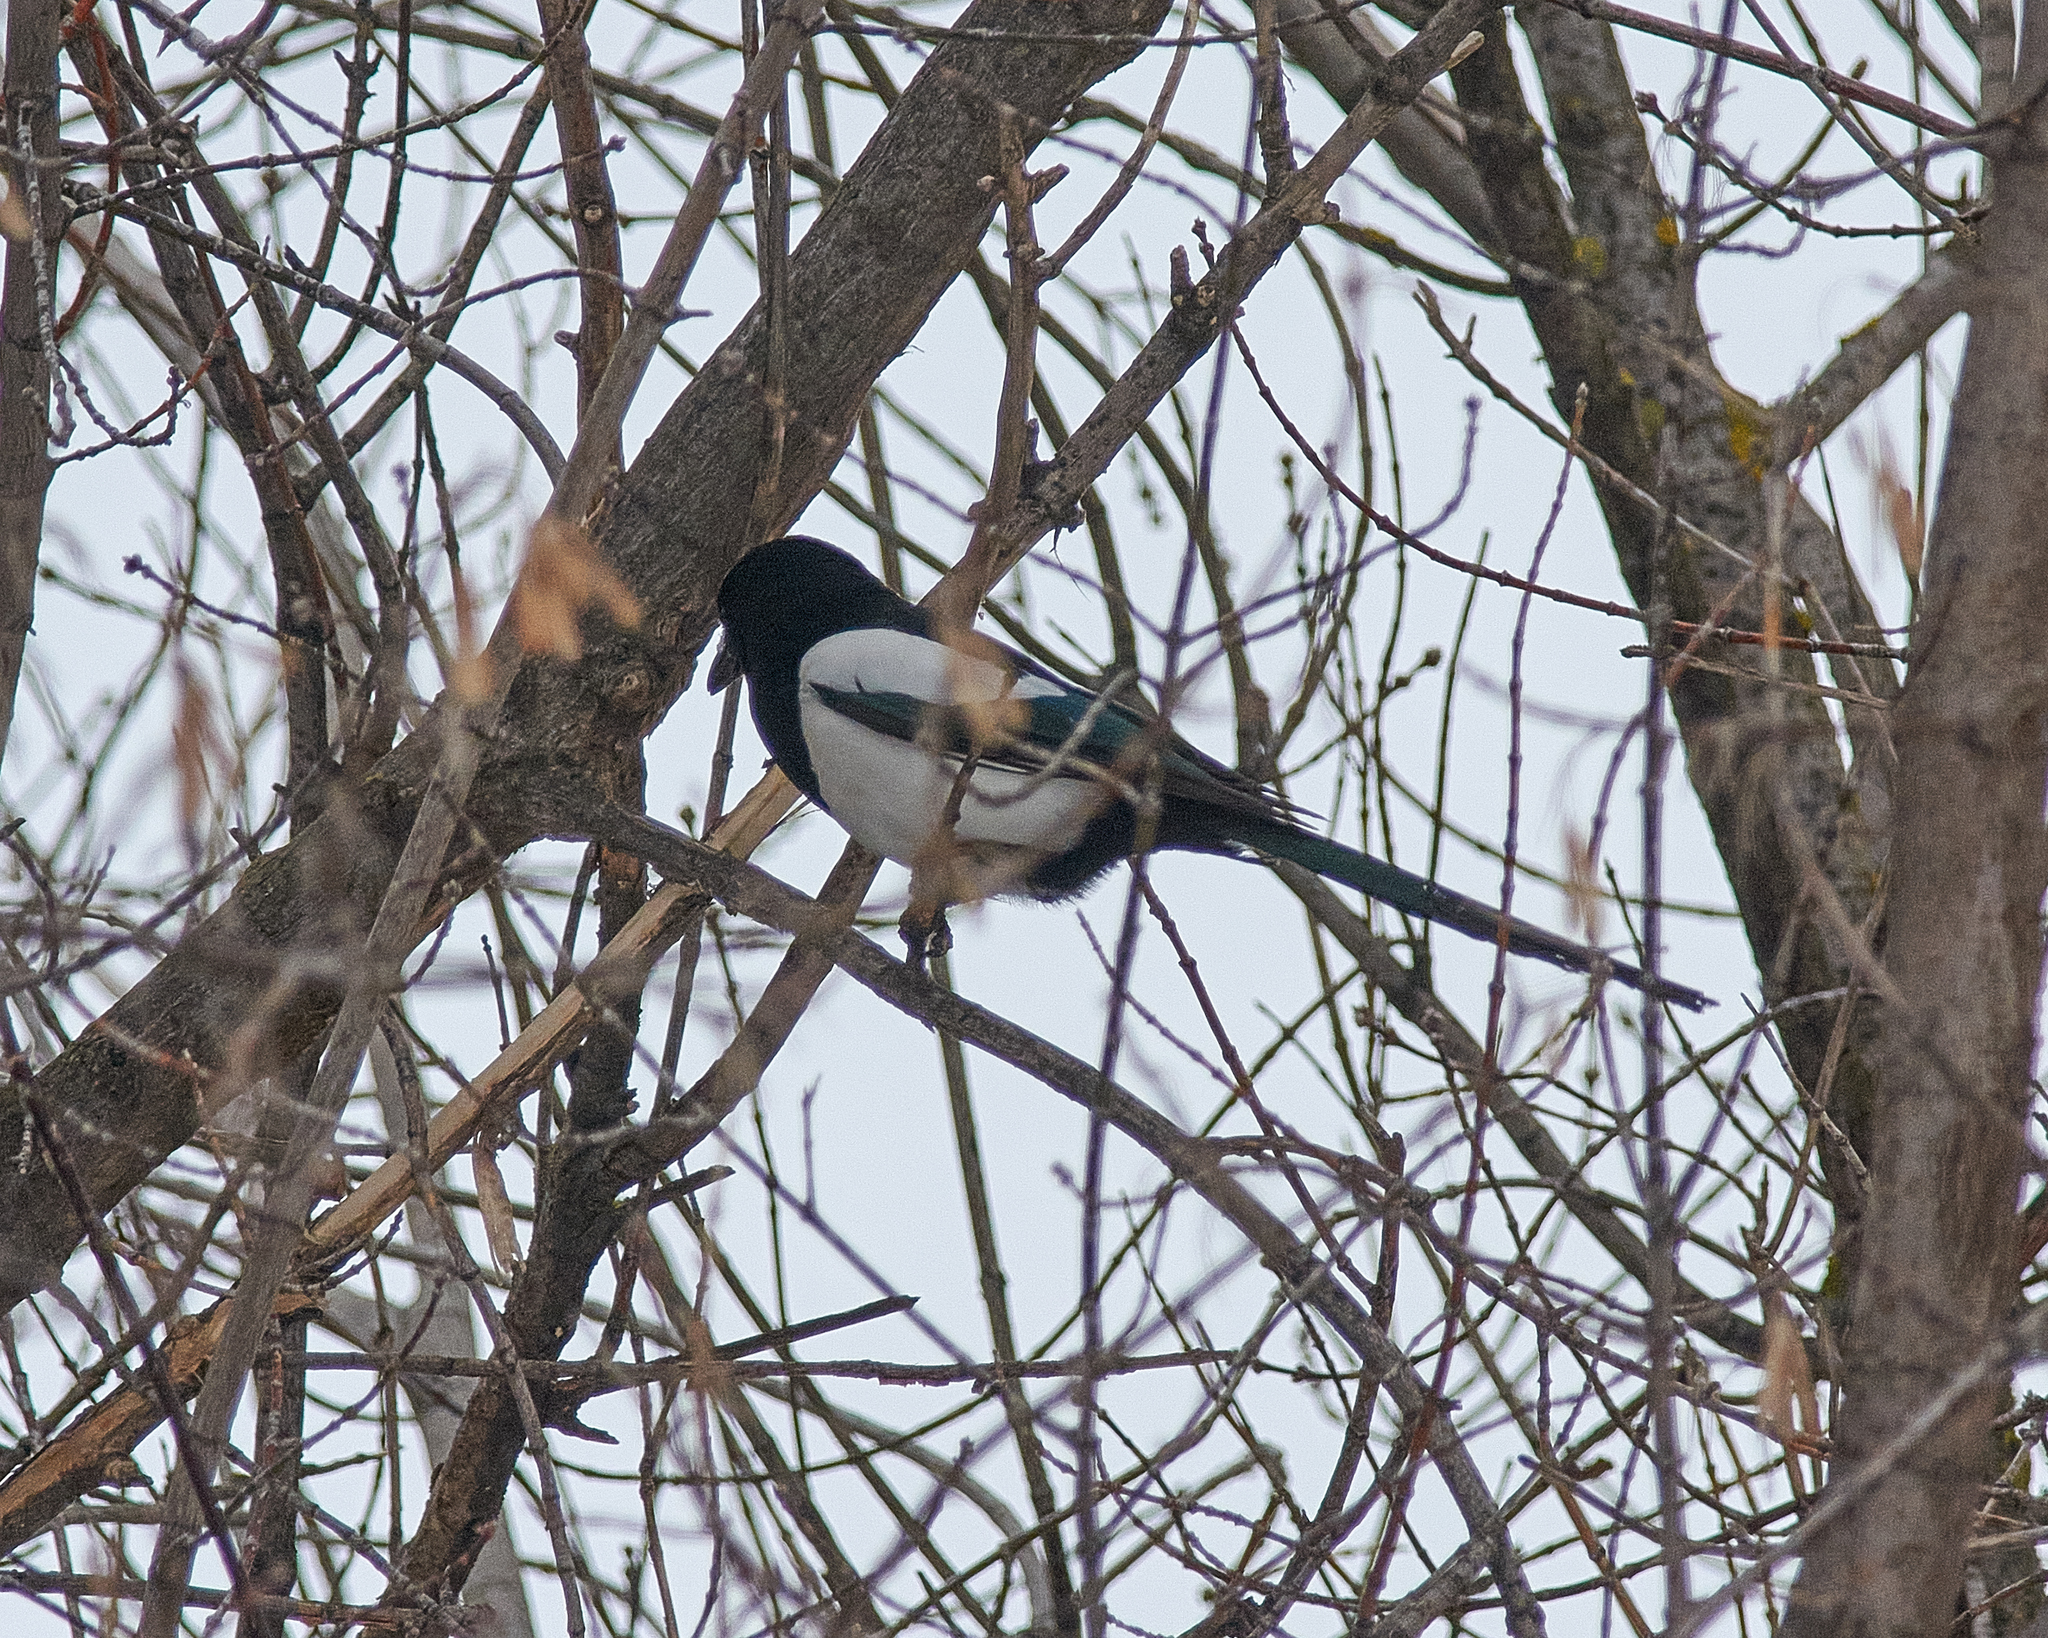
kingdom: Animalia
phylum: Chordata
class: Aves
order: Passeriformes
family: Corvidae
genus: Pica
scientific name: Pica pica
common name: Eurasian magpie
